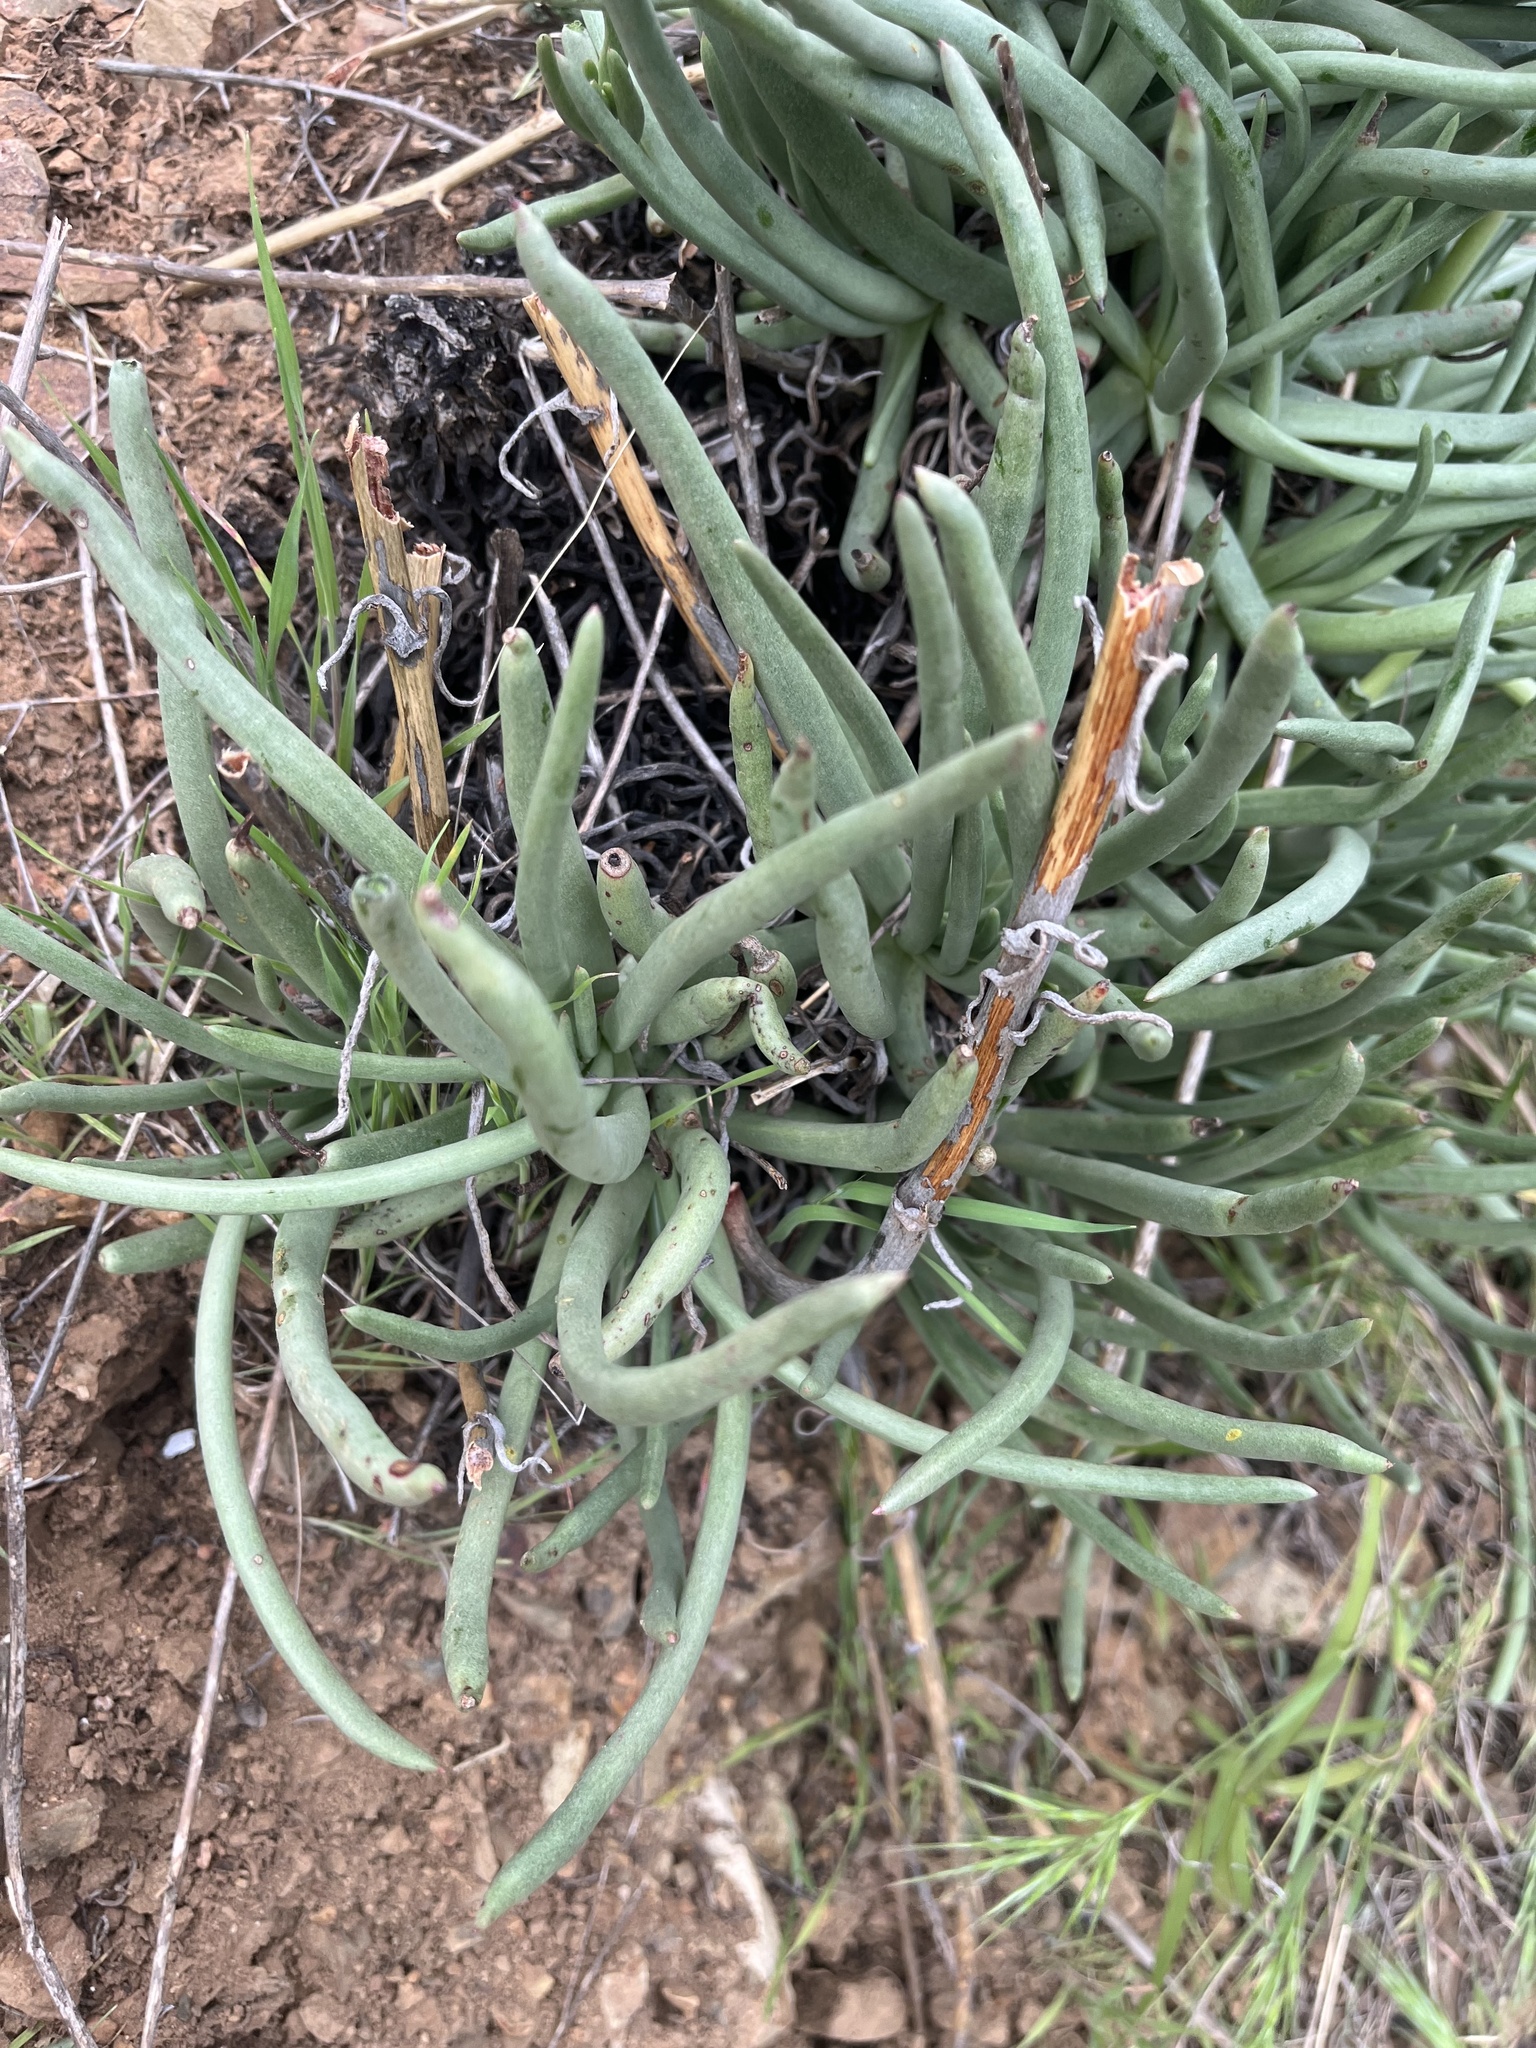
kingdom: Plantae
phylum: Tracheophyta
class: Magnoliopsida
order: Saxifragales
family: Crassulaceae
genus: Dudleya
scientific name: Dudleya edulis
